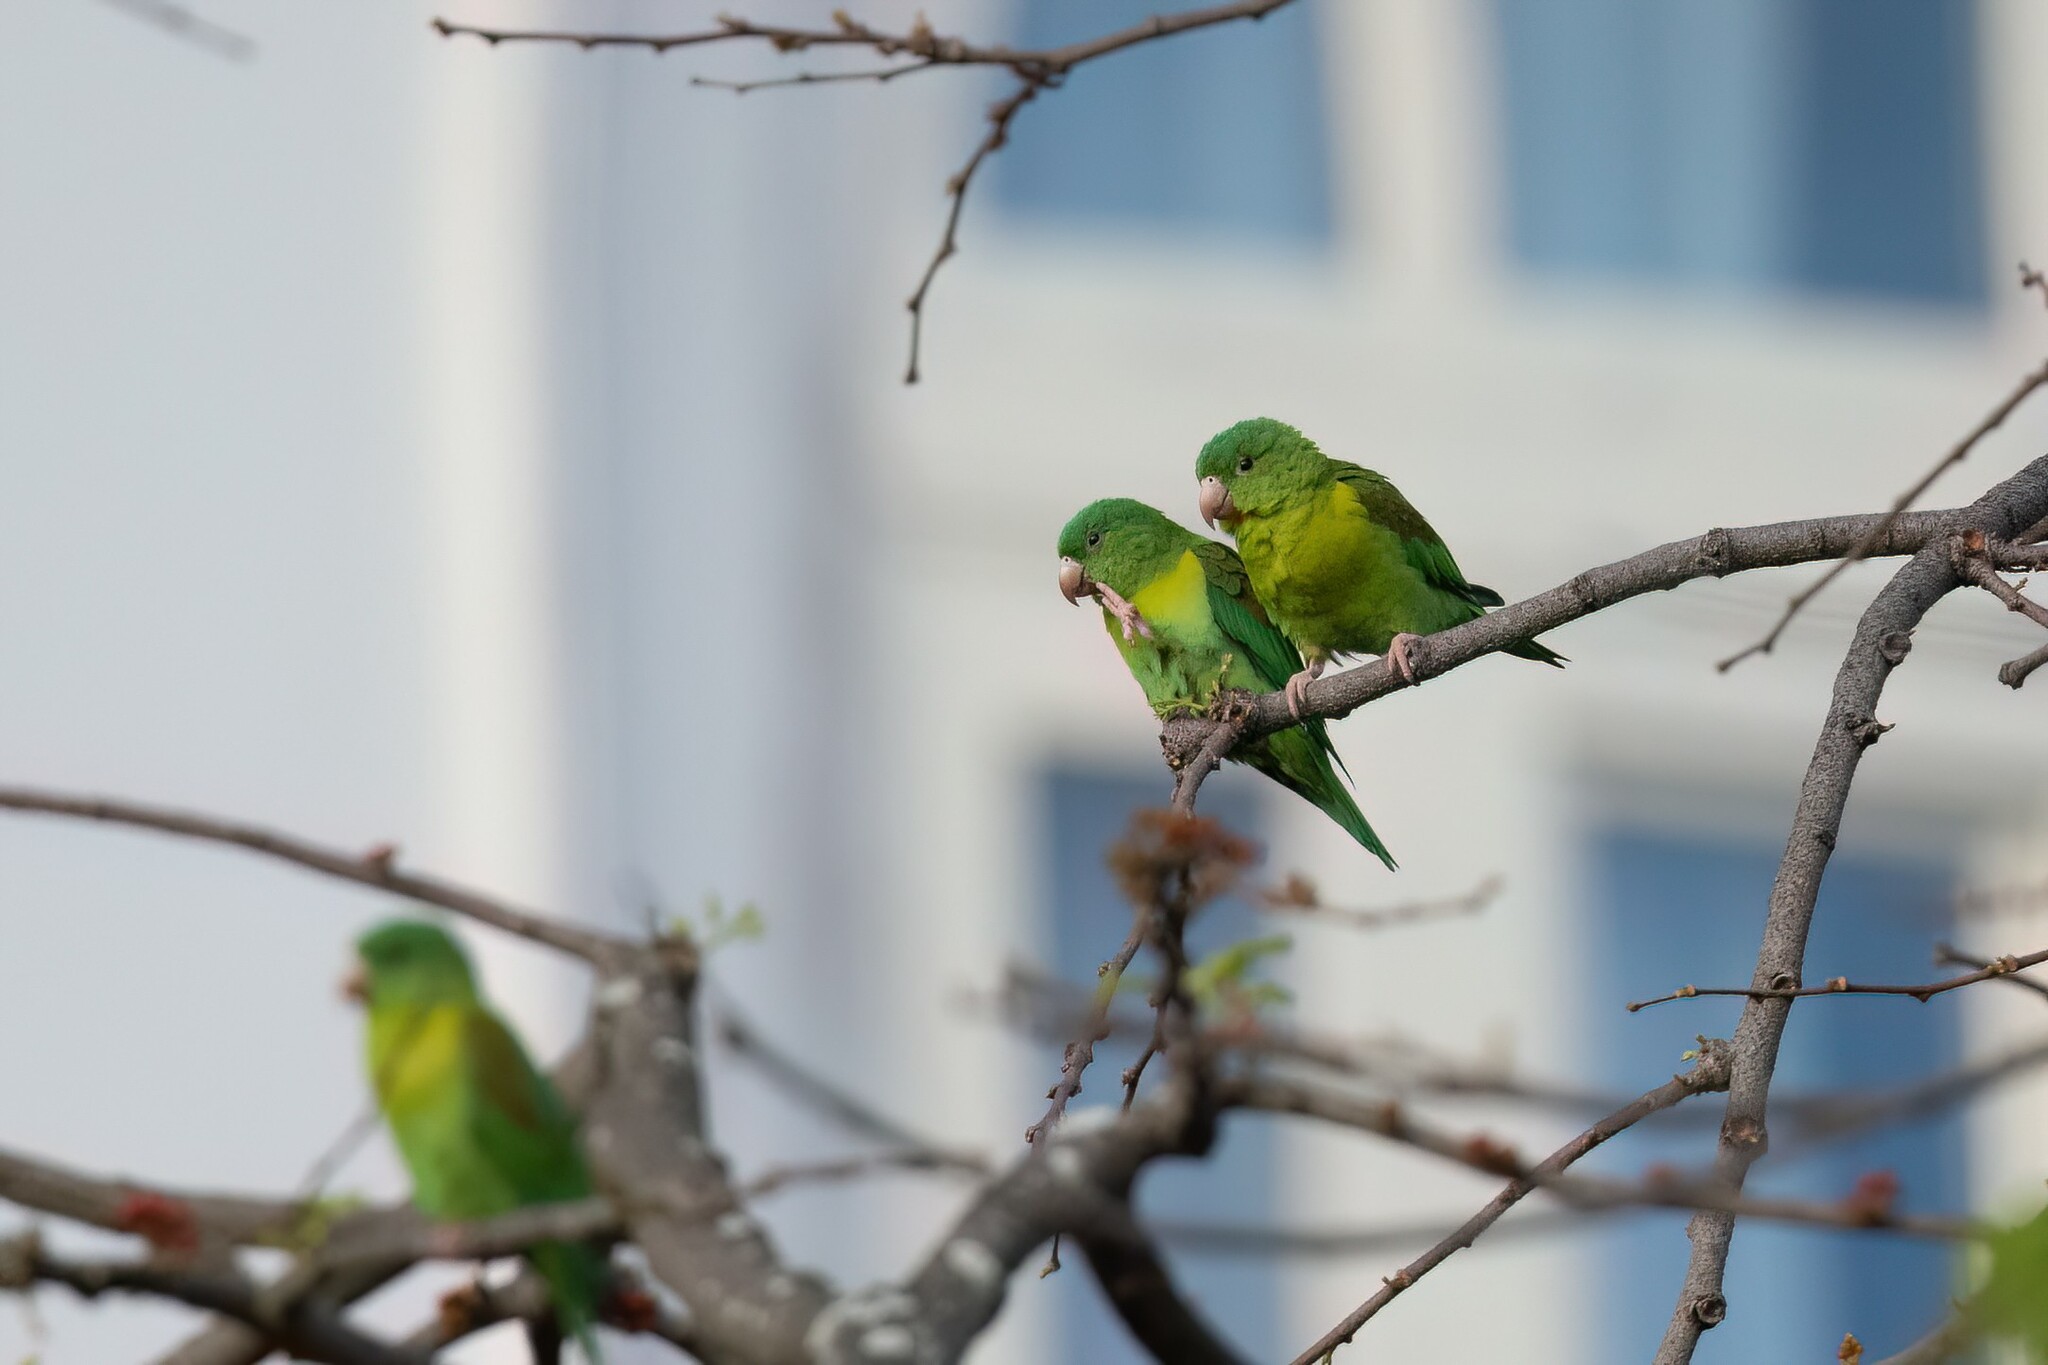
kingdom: Animalia
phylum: Chordata
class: Aves
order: Psittaciformes
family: Psittacidae
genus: Brotogeris
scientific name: Brotogeris jugularis
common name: Orange-chinned parakeet
